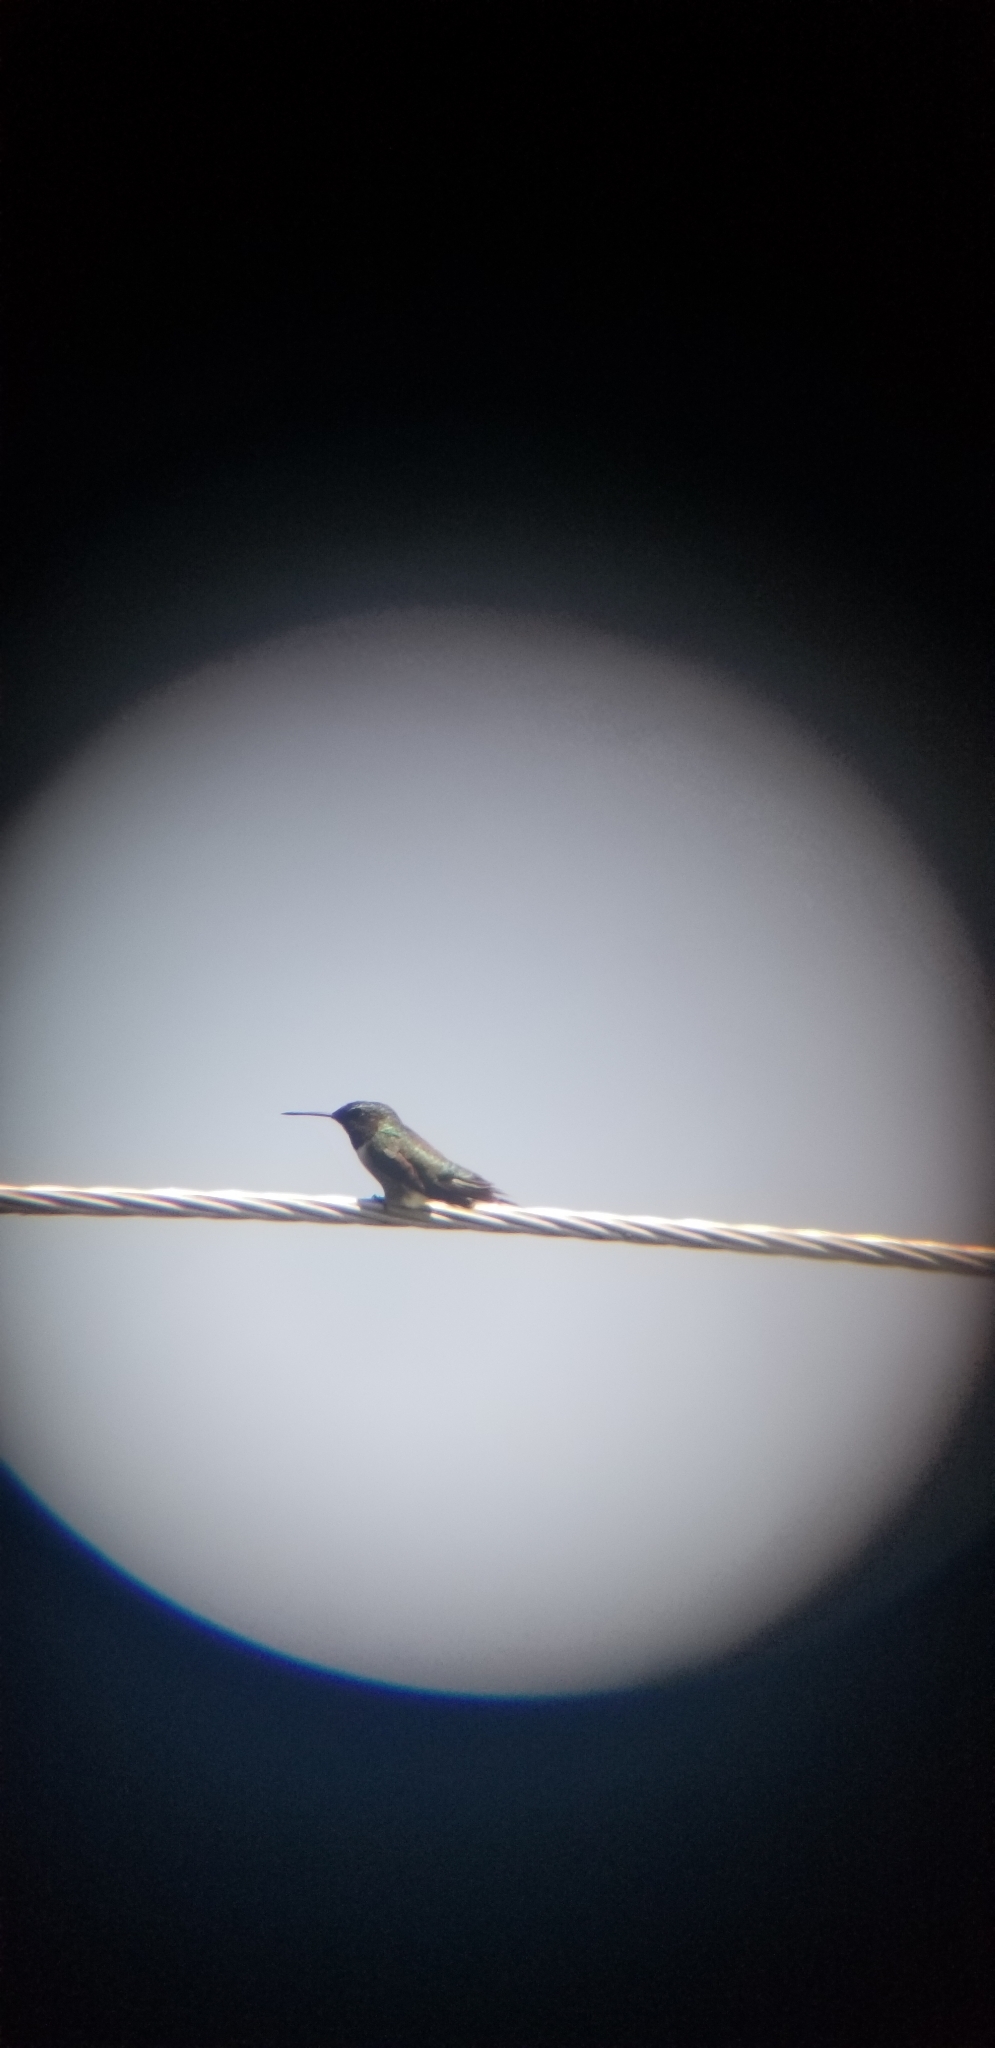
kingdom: Animalia
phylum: Chordata
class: Aves
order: Apodiformes
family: Trochilidae
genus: Archilochus
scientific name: Archilochus colubris
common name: Ruby-throated hummingbird
